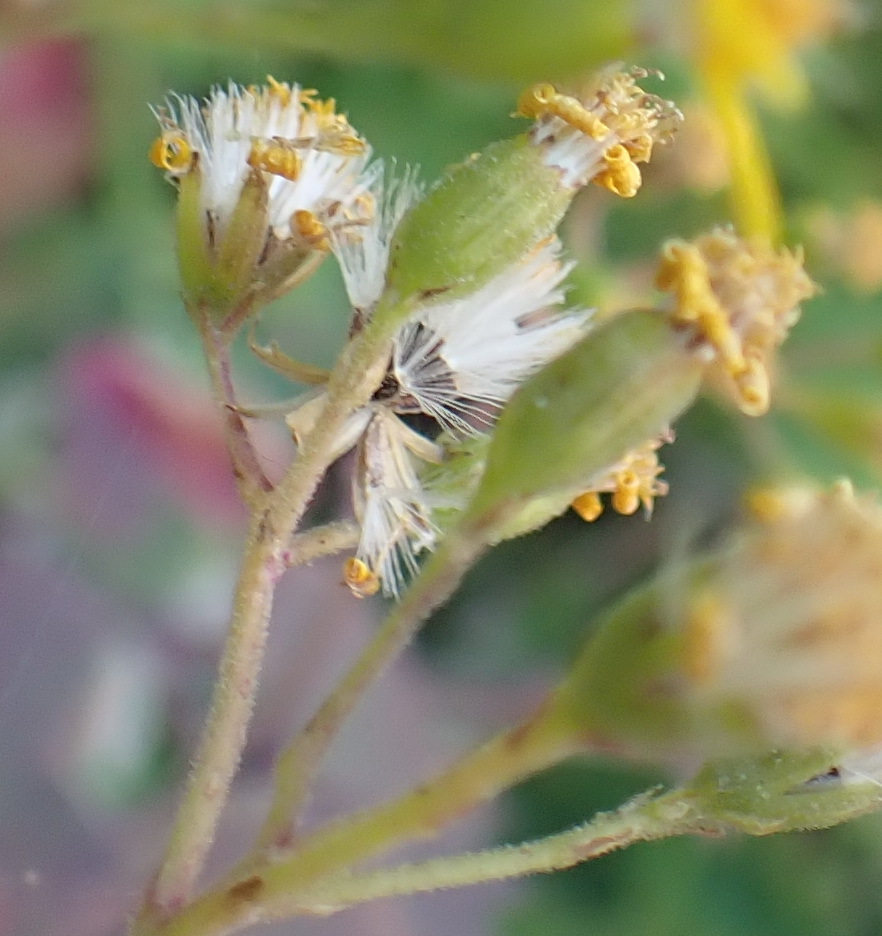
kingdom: Plantae
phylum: Tracheophyta
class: Magnoliopsida
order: Asterales
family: Asteraceae
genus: Cineraria
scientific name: Cineraria geifolia
